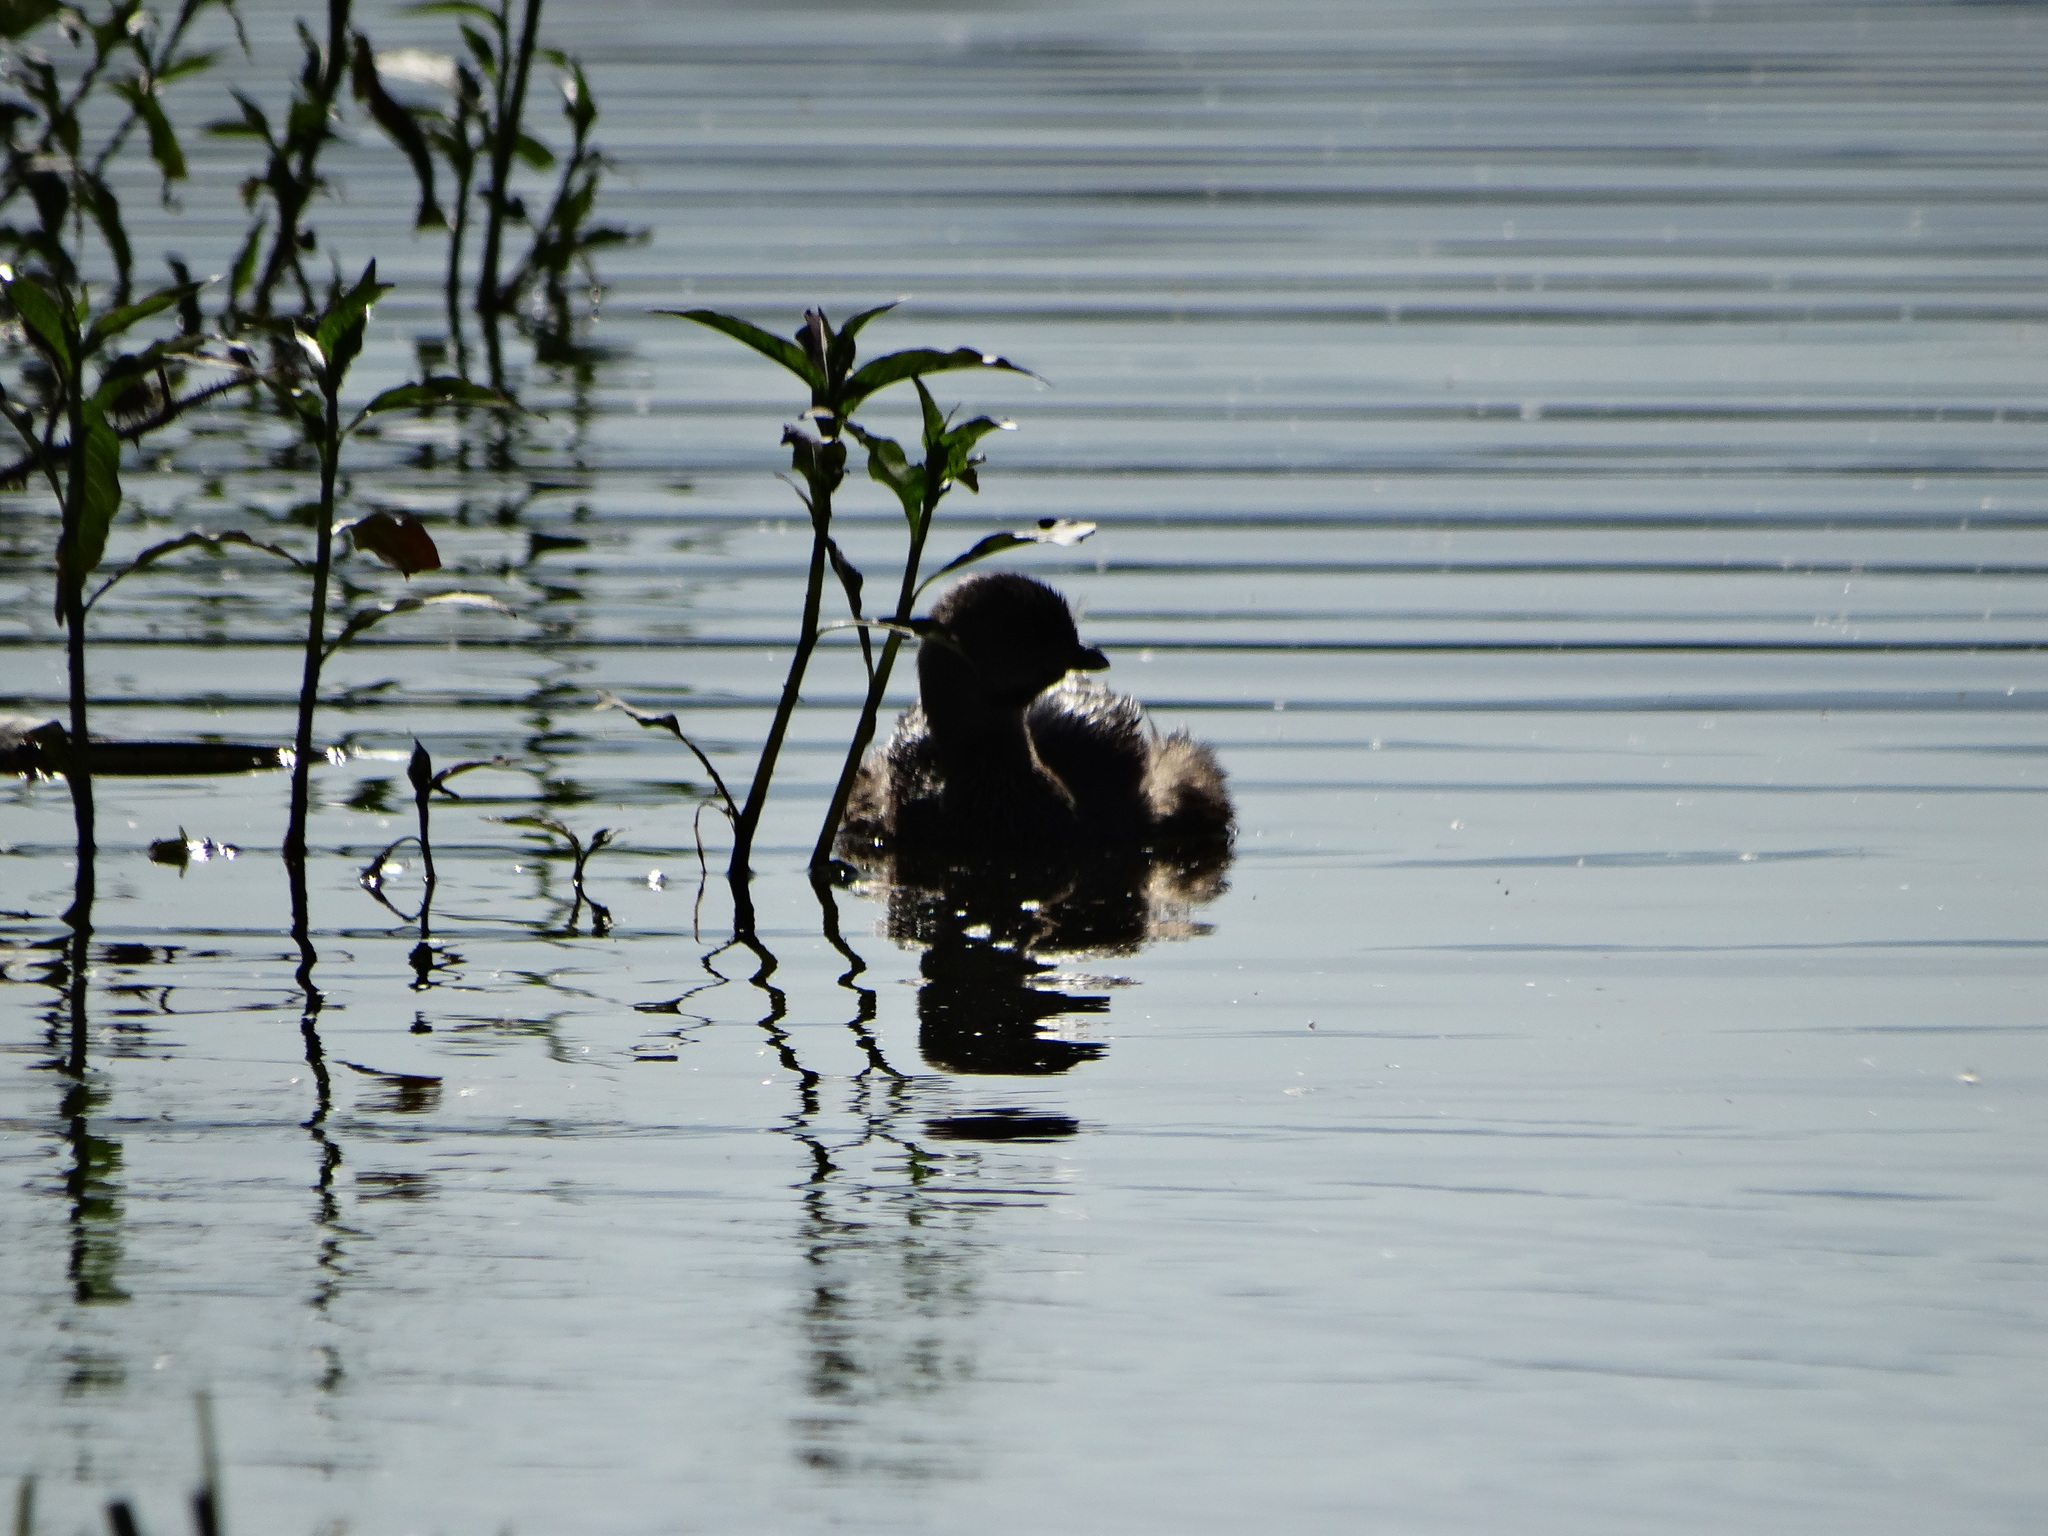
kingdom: Animalia
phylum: Chordata
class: Aves
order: Podicipediformes
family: Podicipedidae
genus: Podilymbus
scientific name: Podilymbus podiceps
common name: Pied-billed grebe
